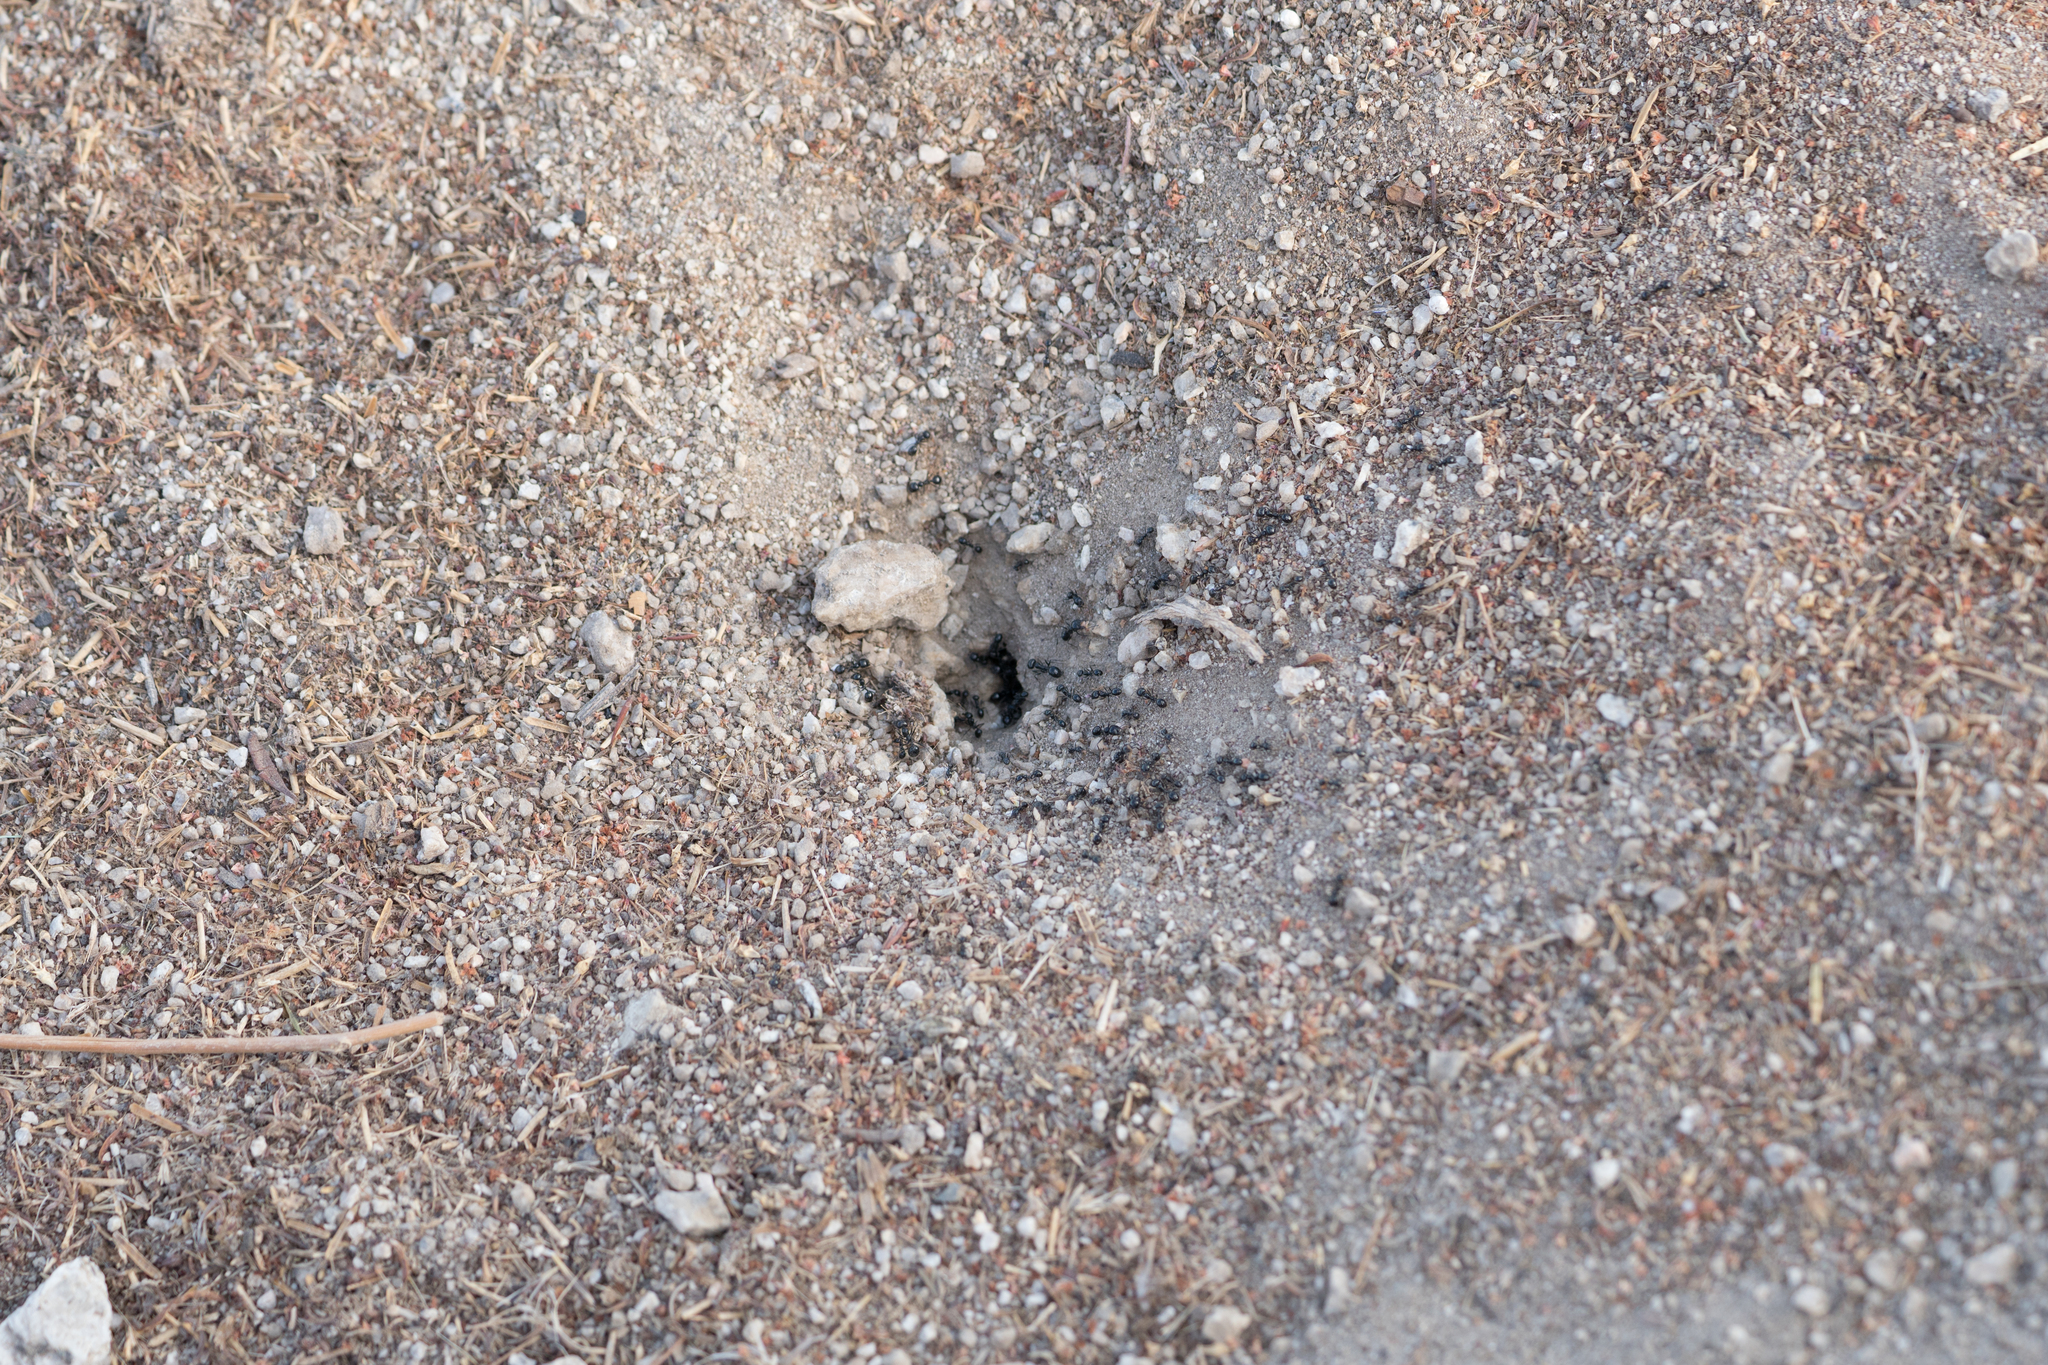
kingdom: Animalia
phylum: Arthropoda
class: Insecta
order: Hymenoptera
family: Formicidae
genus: Messor
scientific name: Messor pergandei
